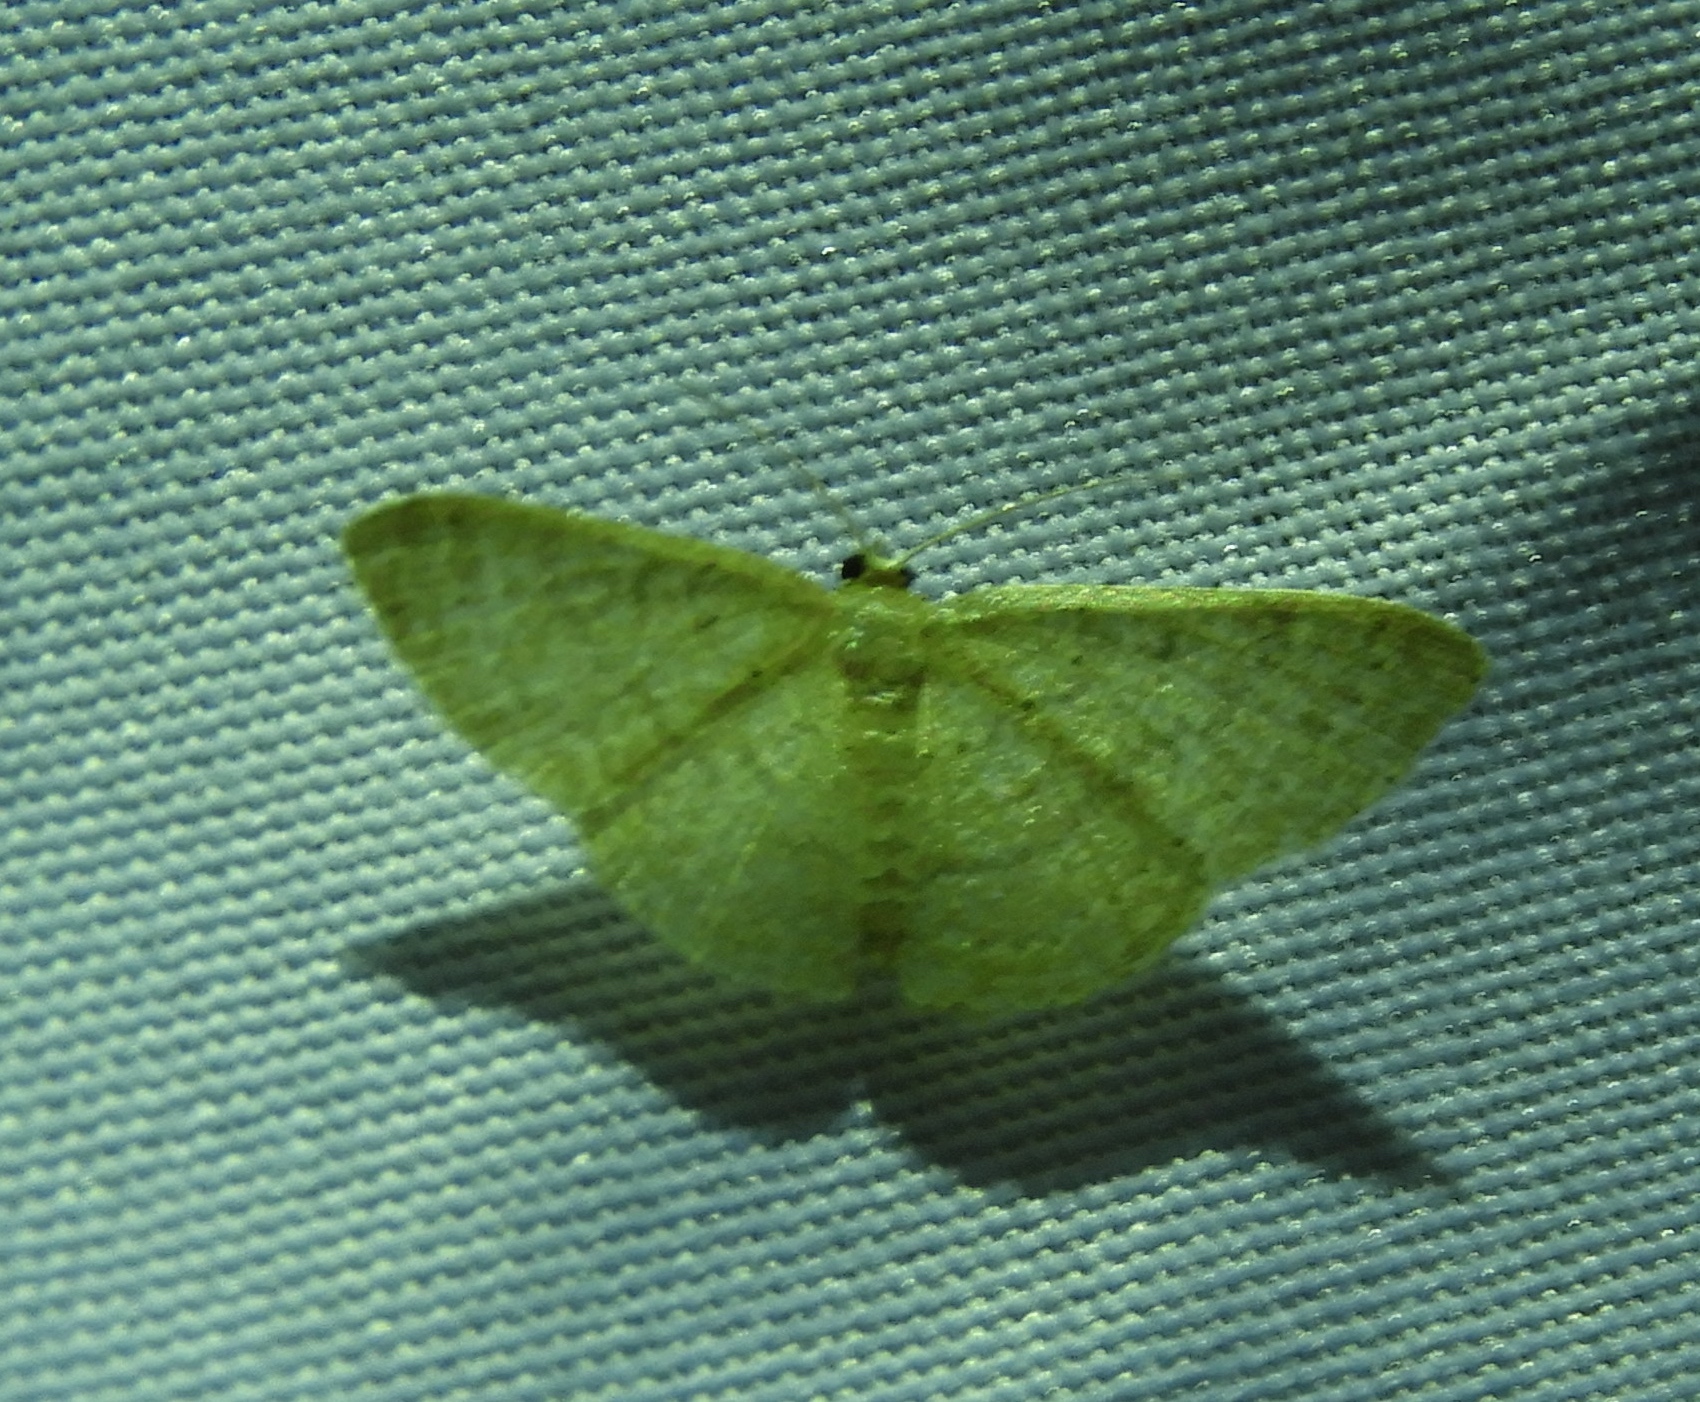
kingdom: Animalia
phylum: Arthropoda
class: Insecta
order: Lepidoptera
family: Geometridae
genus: Sterrhinae
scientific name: Sterrhinae
